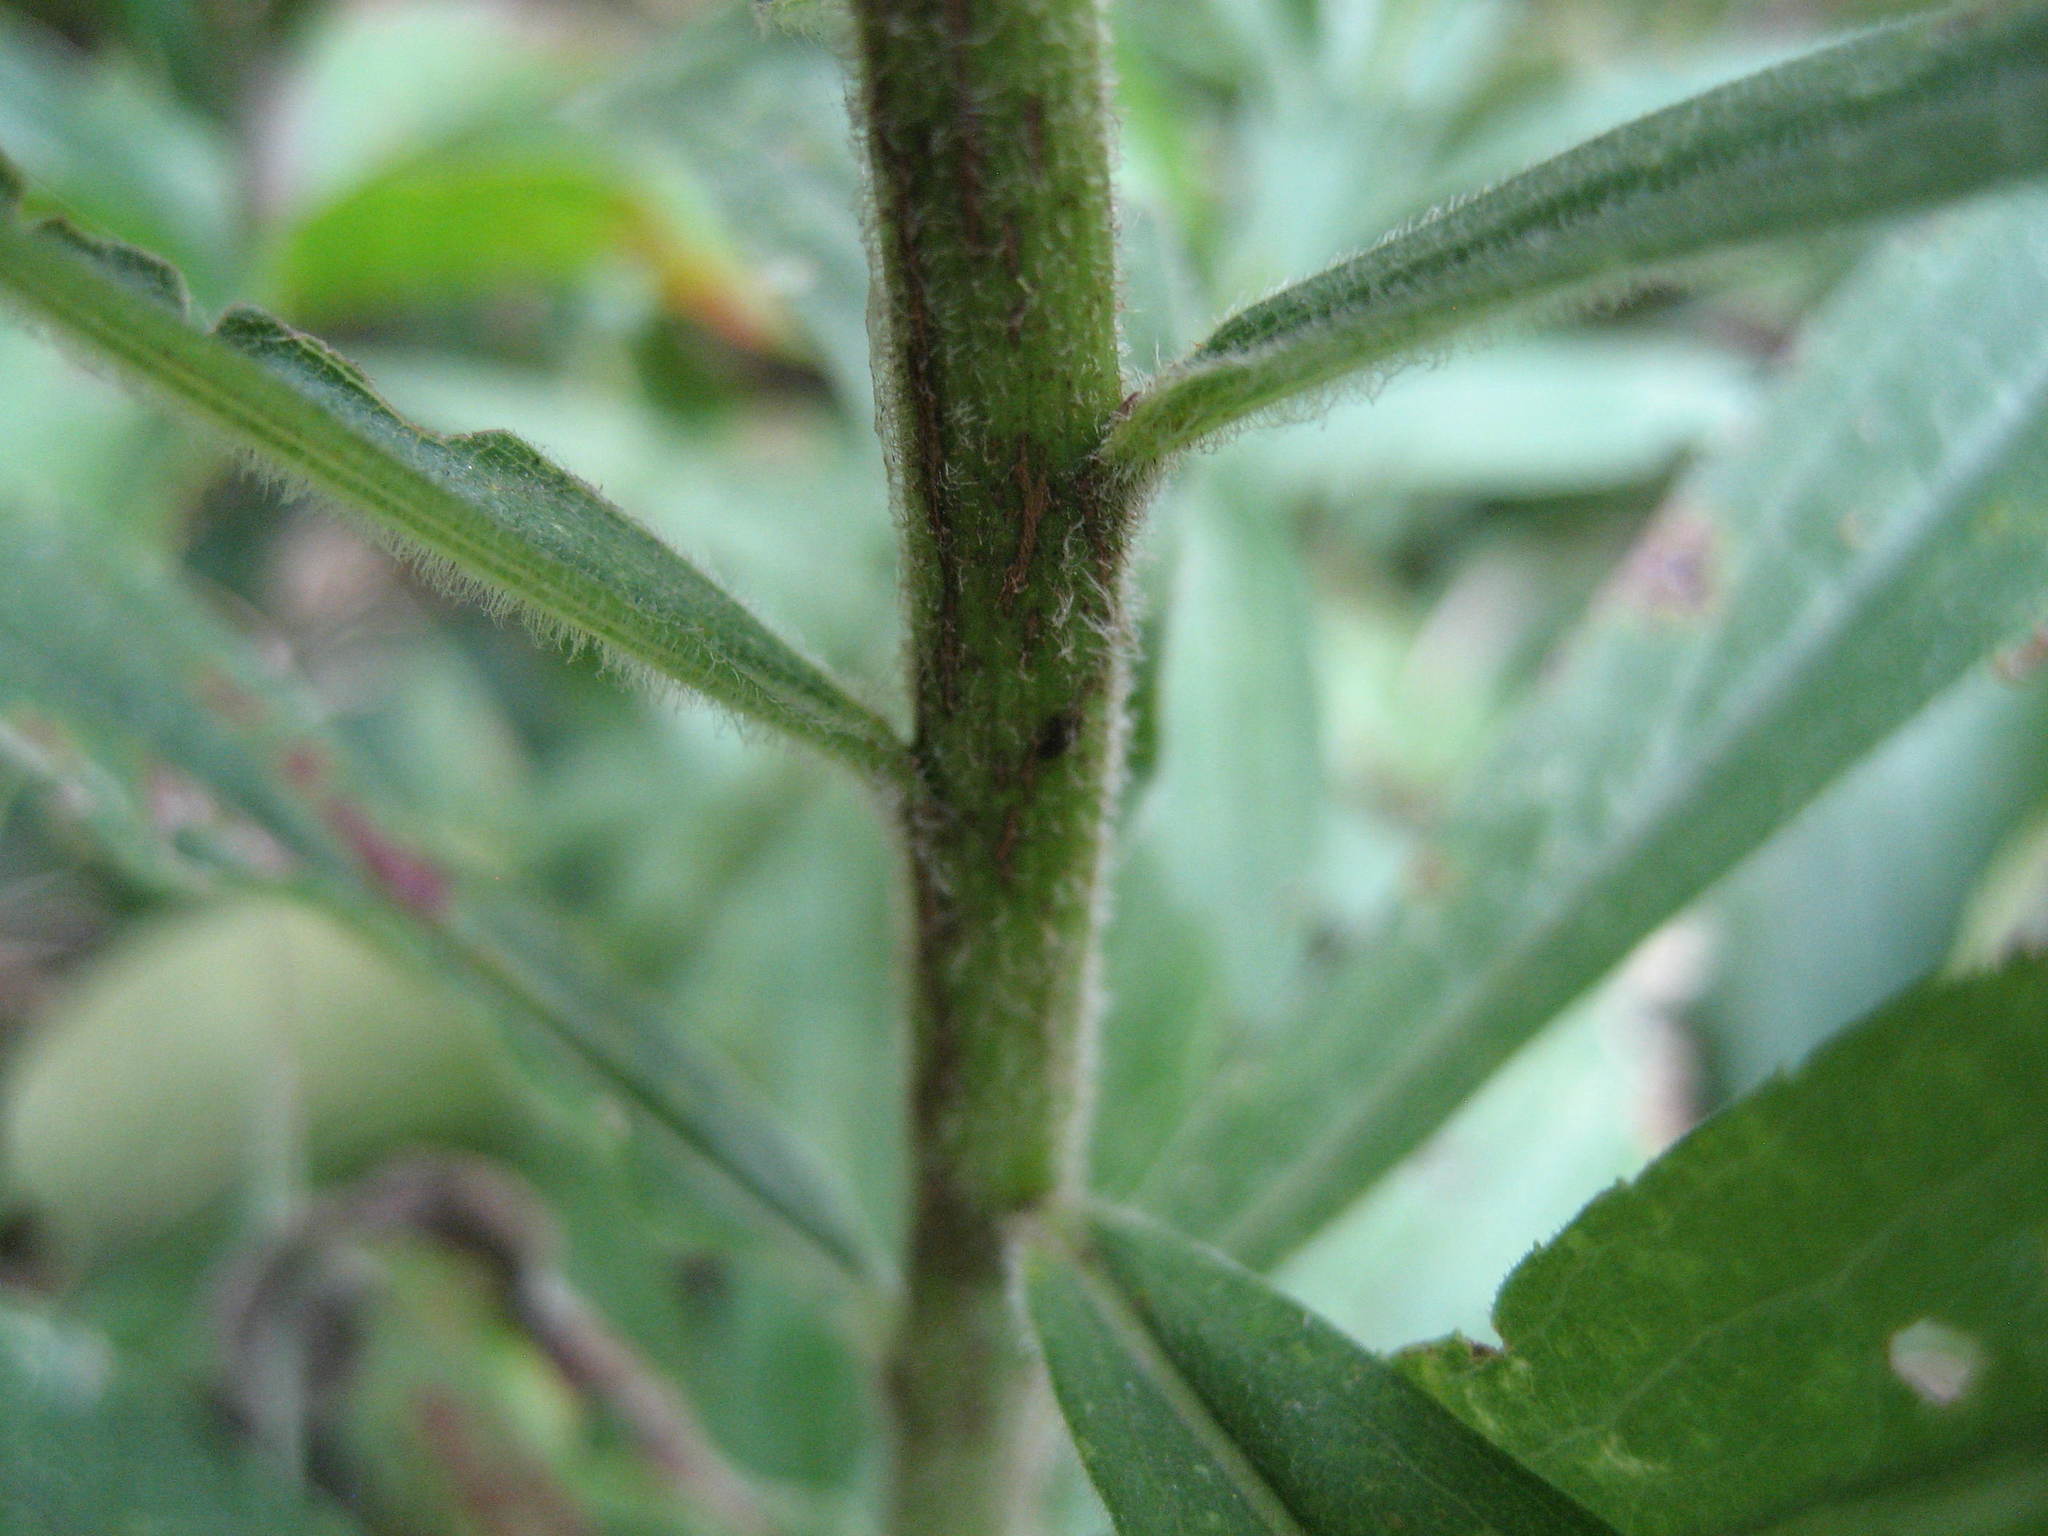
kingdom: Plantae
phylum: Tracheophyta
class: Magnoliopsida
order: Asterales
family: Asteraceae
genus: Solidago
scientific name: Solidago altissima
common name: Late goldenrod
